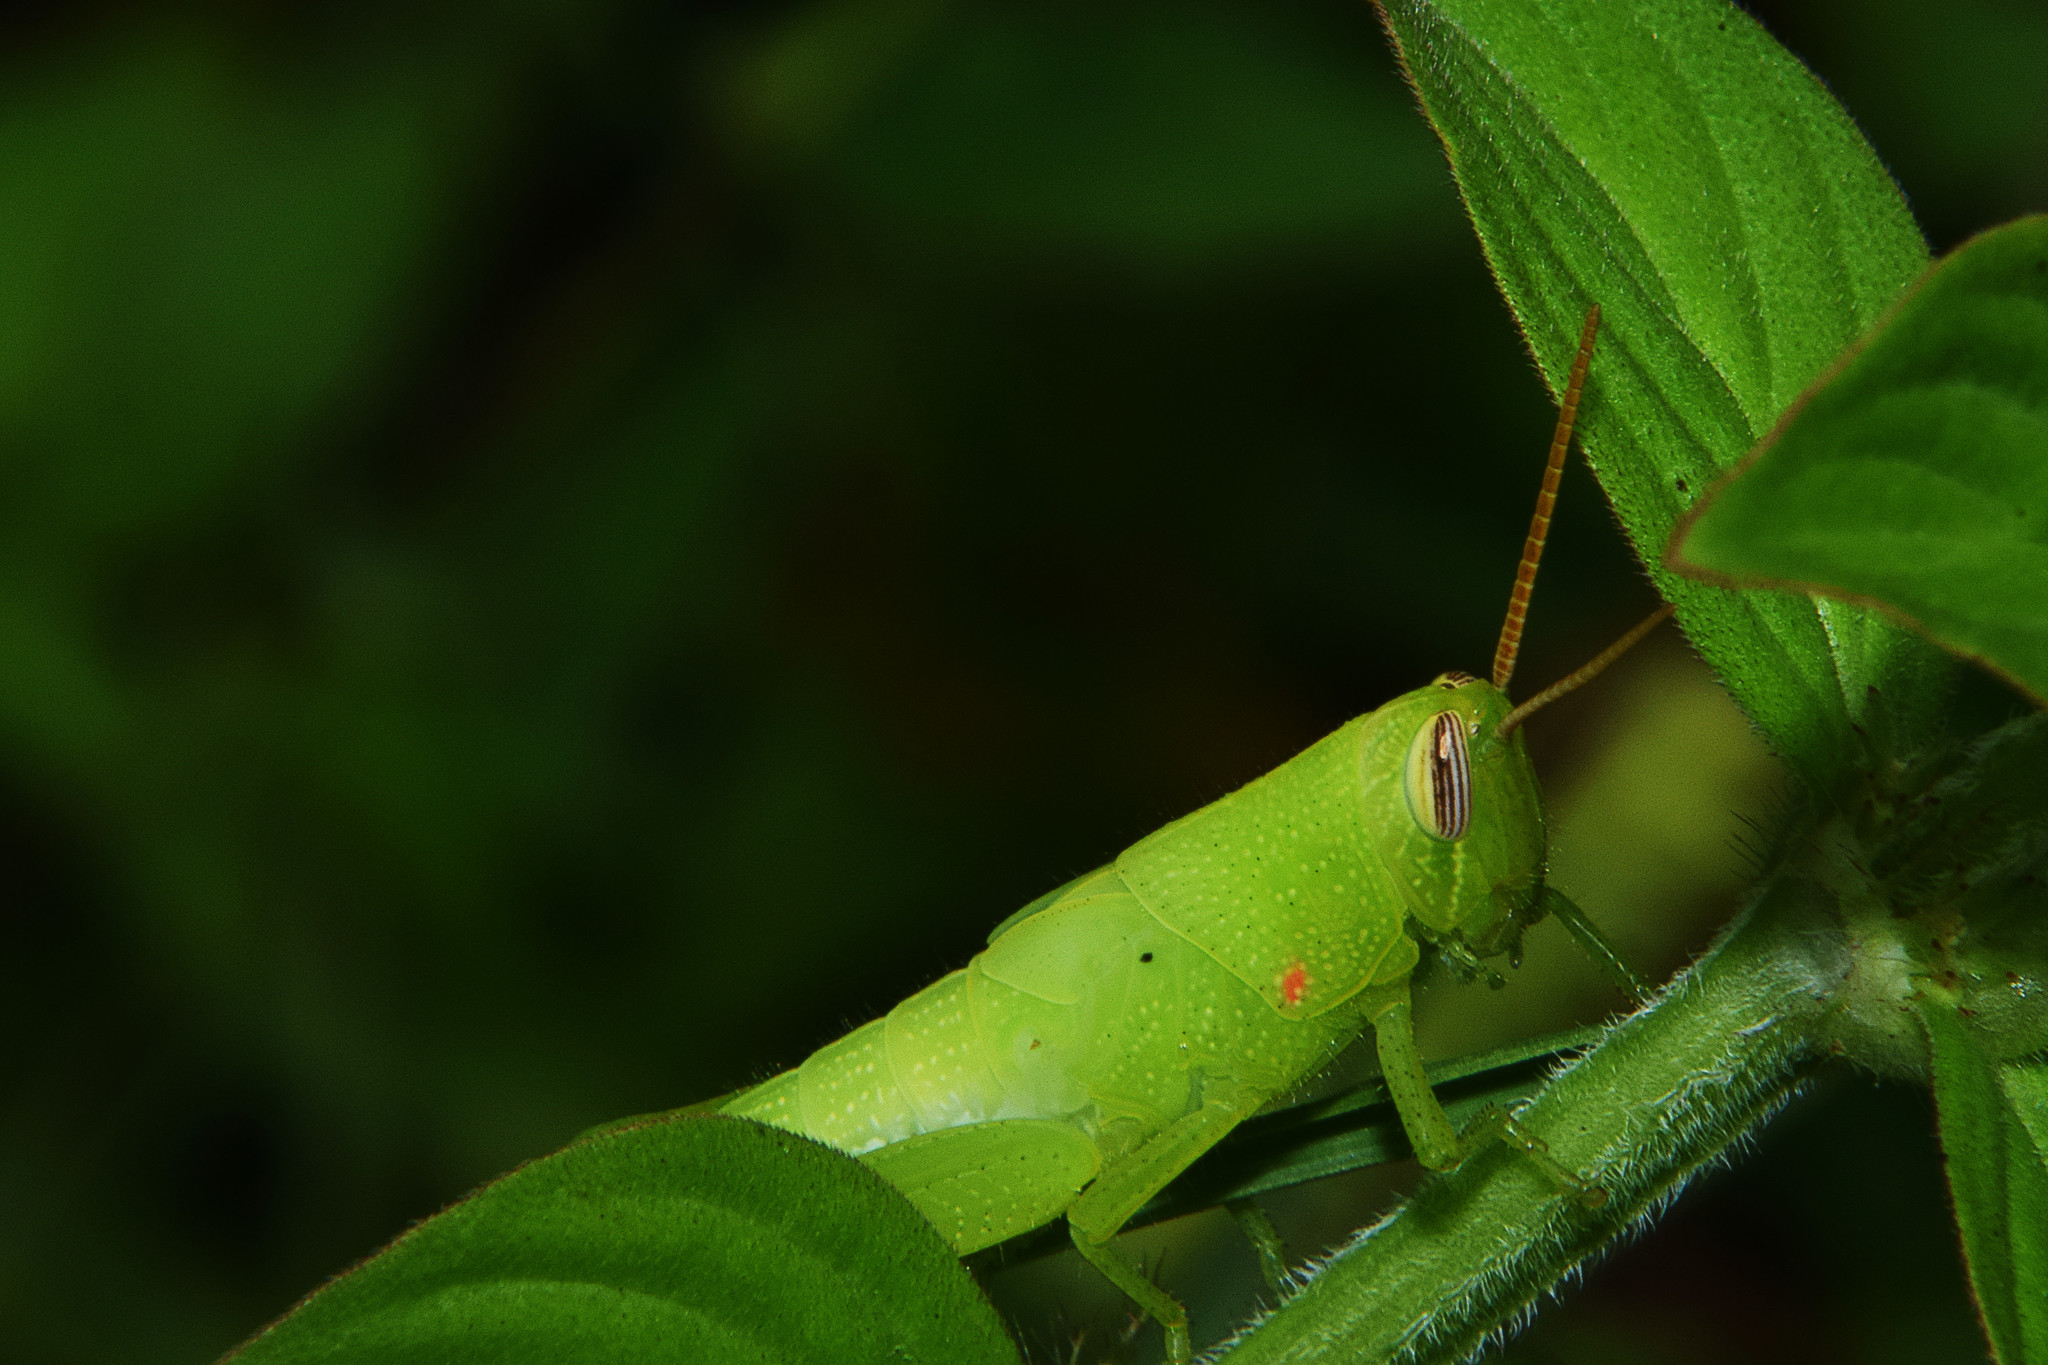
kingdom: Animalia
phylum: Arthropoda
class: Insecta
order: Orthoptera
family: Acrididae
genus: Stenocatantops
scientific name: Stenocatantops splendens
